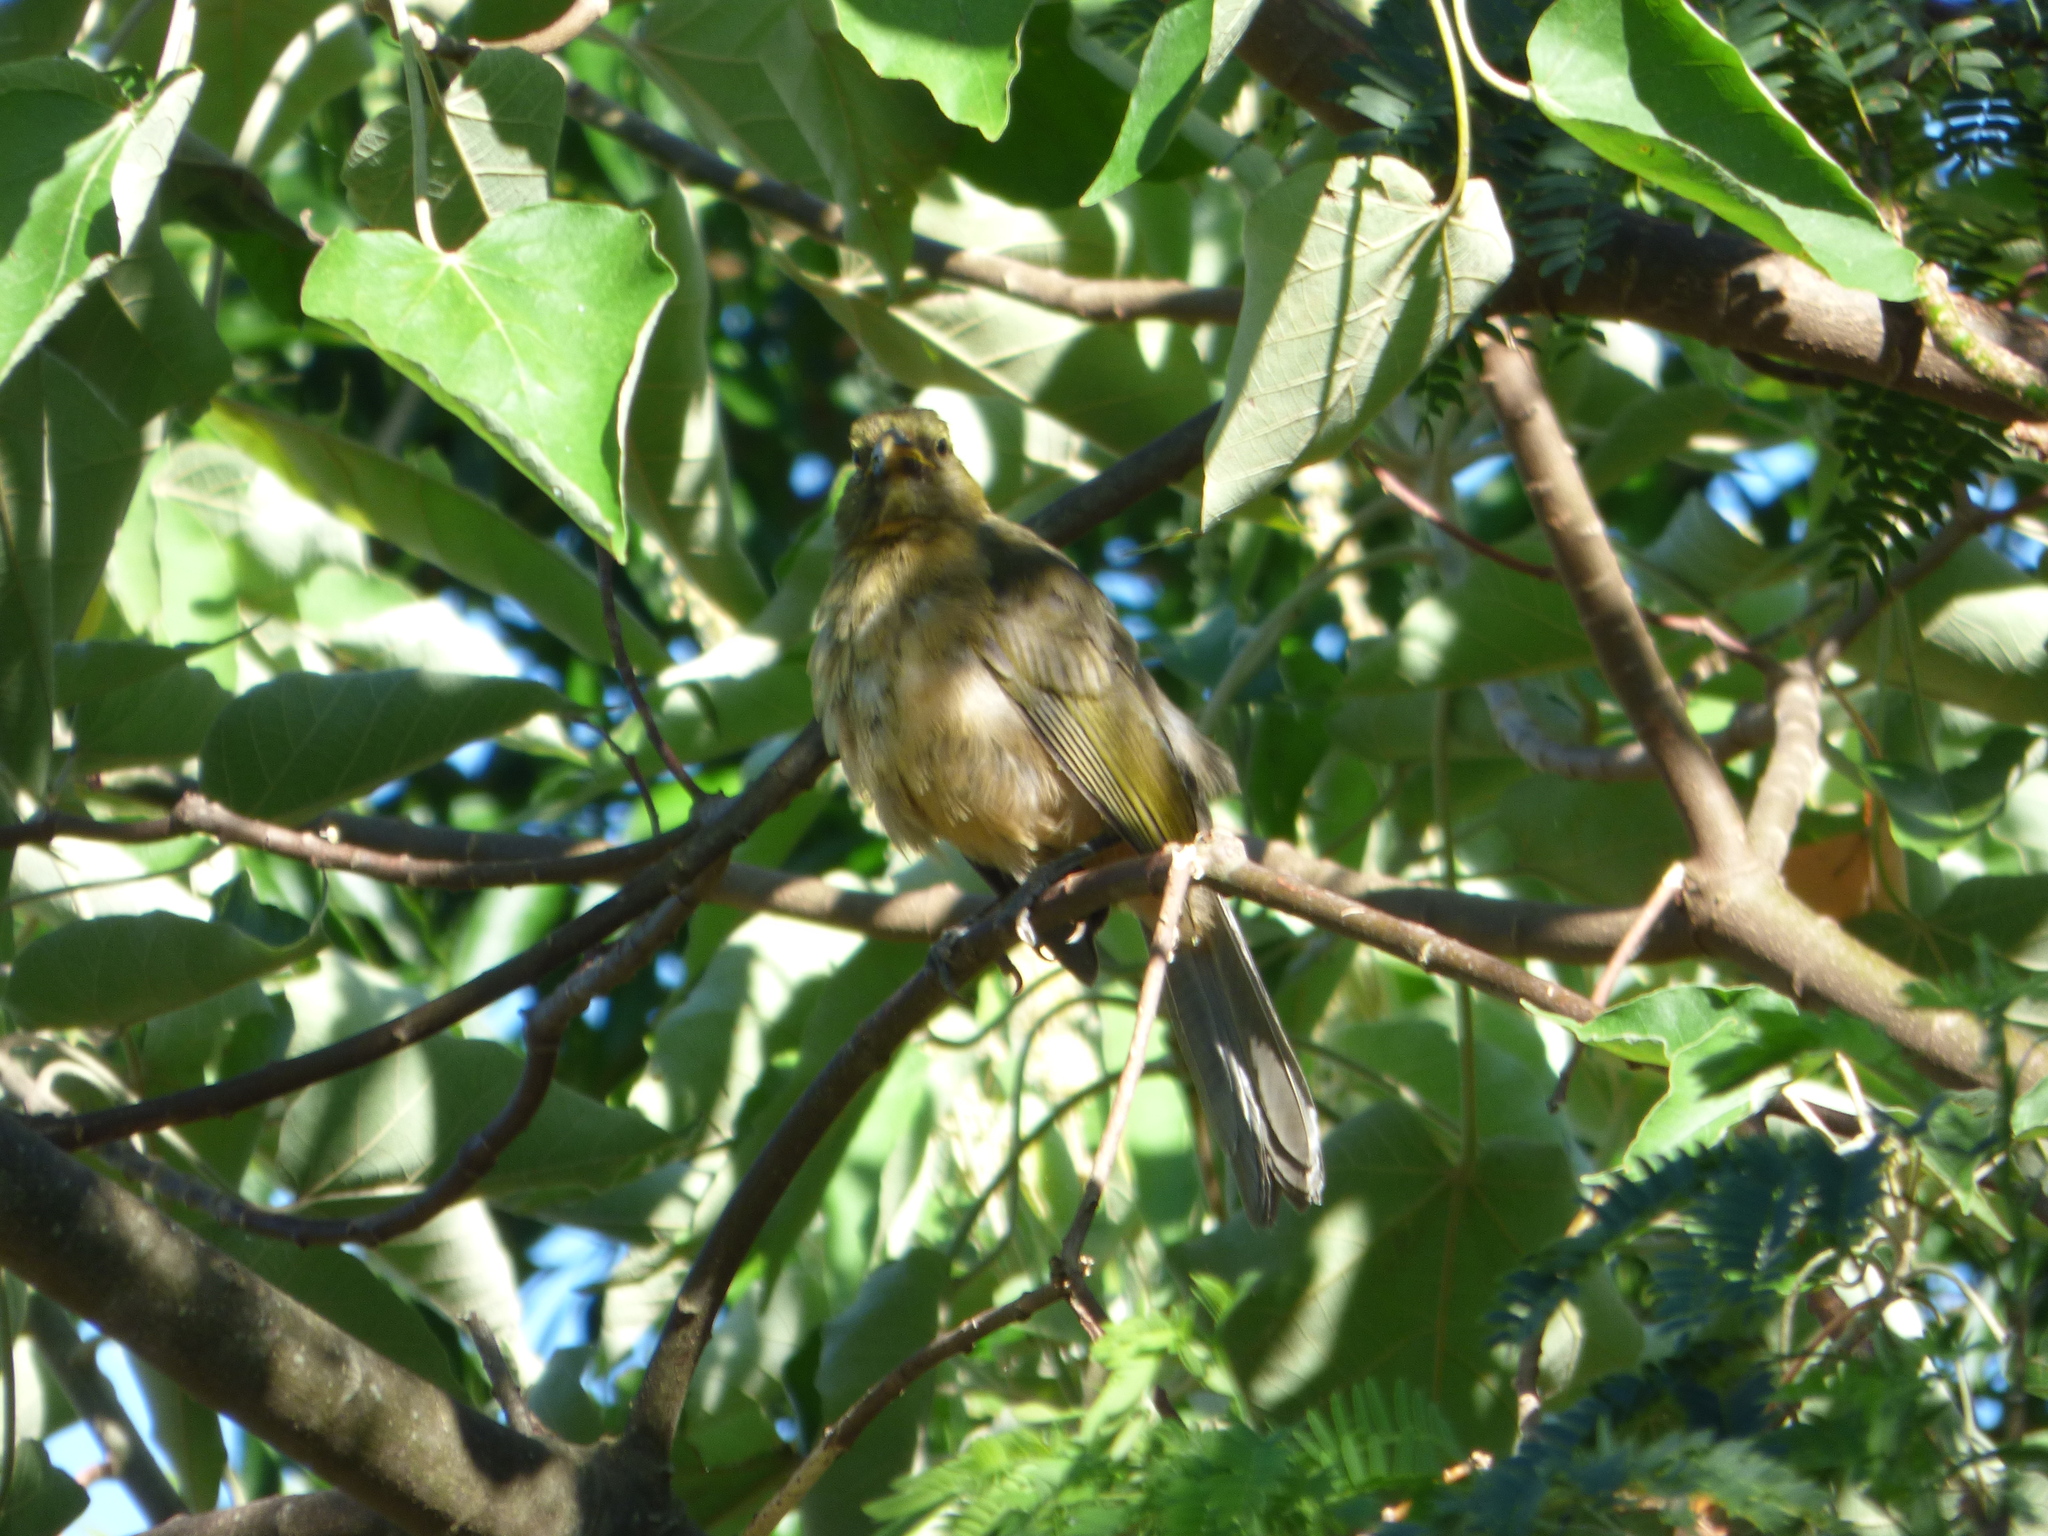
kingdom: Animalia
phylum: Chordata
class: Aves
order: Passeriformes
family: Thraupidae
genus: Saltator
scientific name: Saltator coerulescens
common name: Grayish saltator
